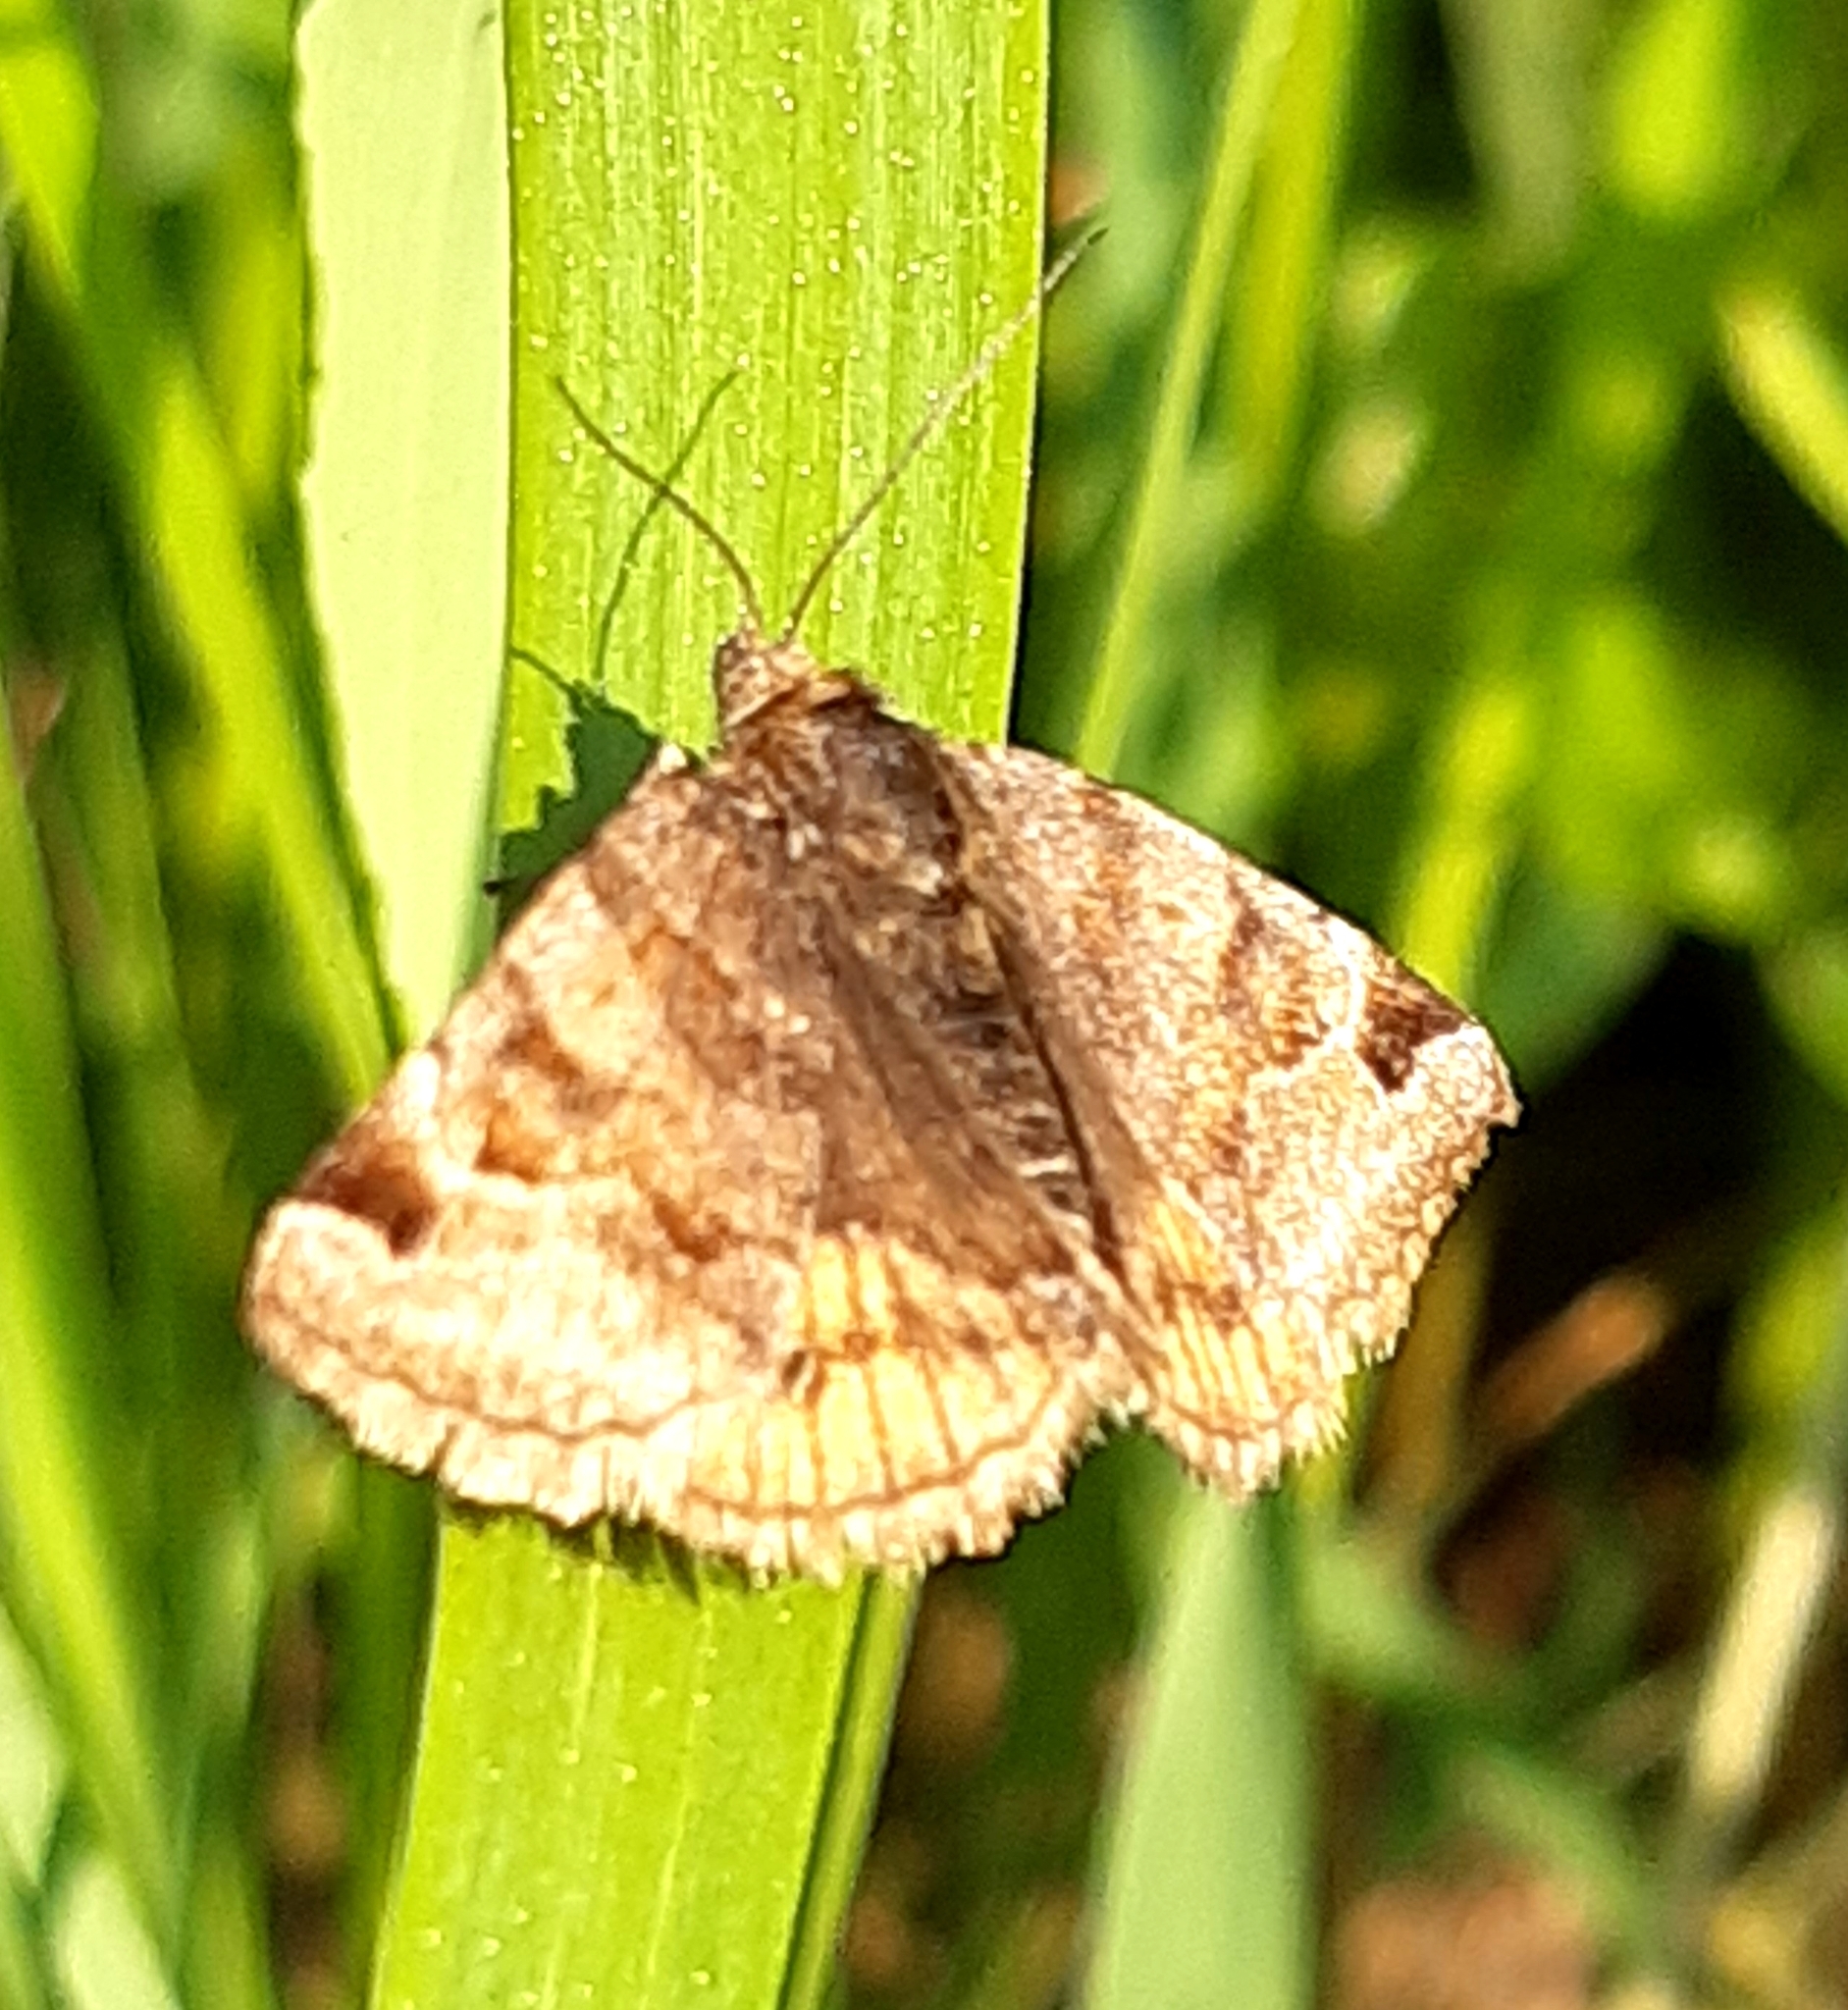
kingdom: Animalia
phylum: Arthropoda
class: Insecta
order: Lepidoptera
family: Erebidae
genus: Euclidia
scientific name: Euclidia glyphica
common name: Burnet companion
